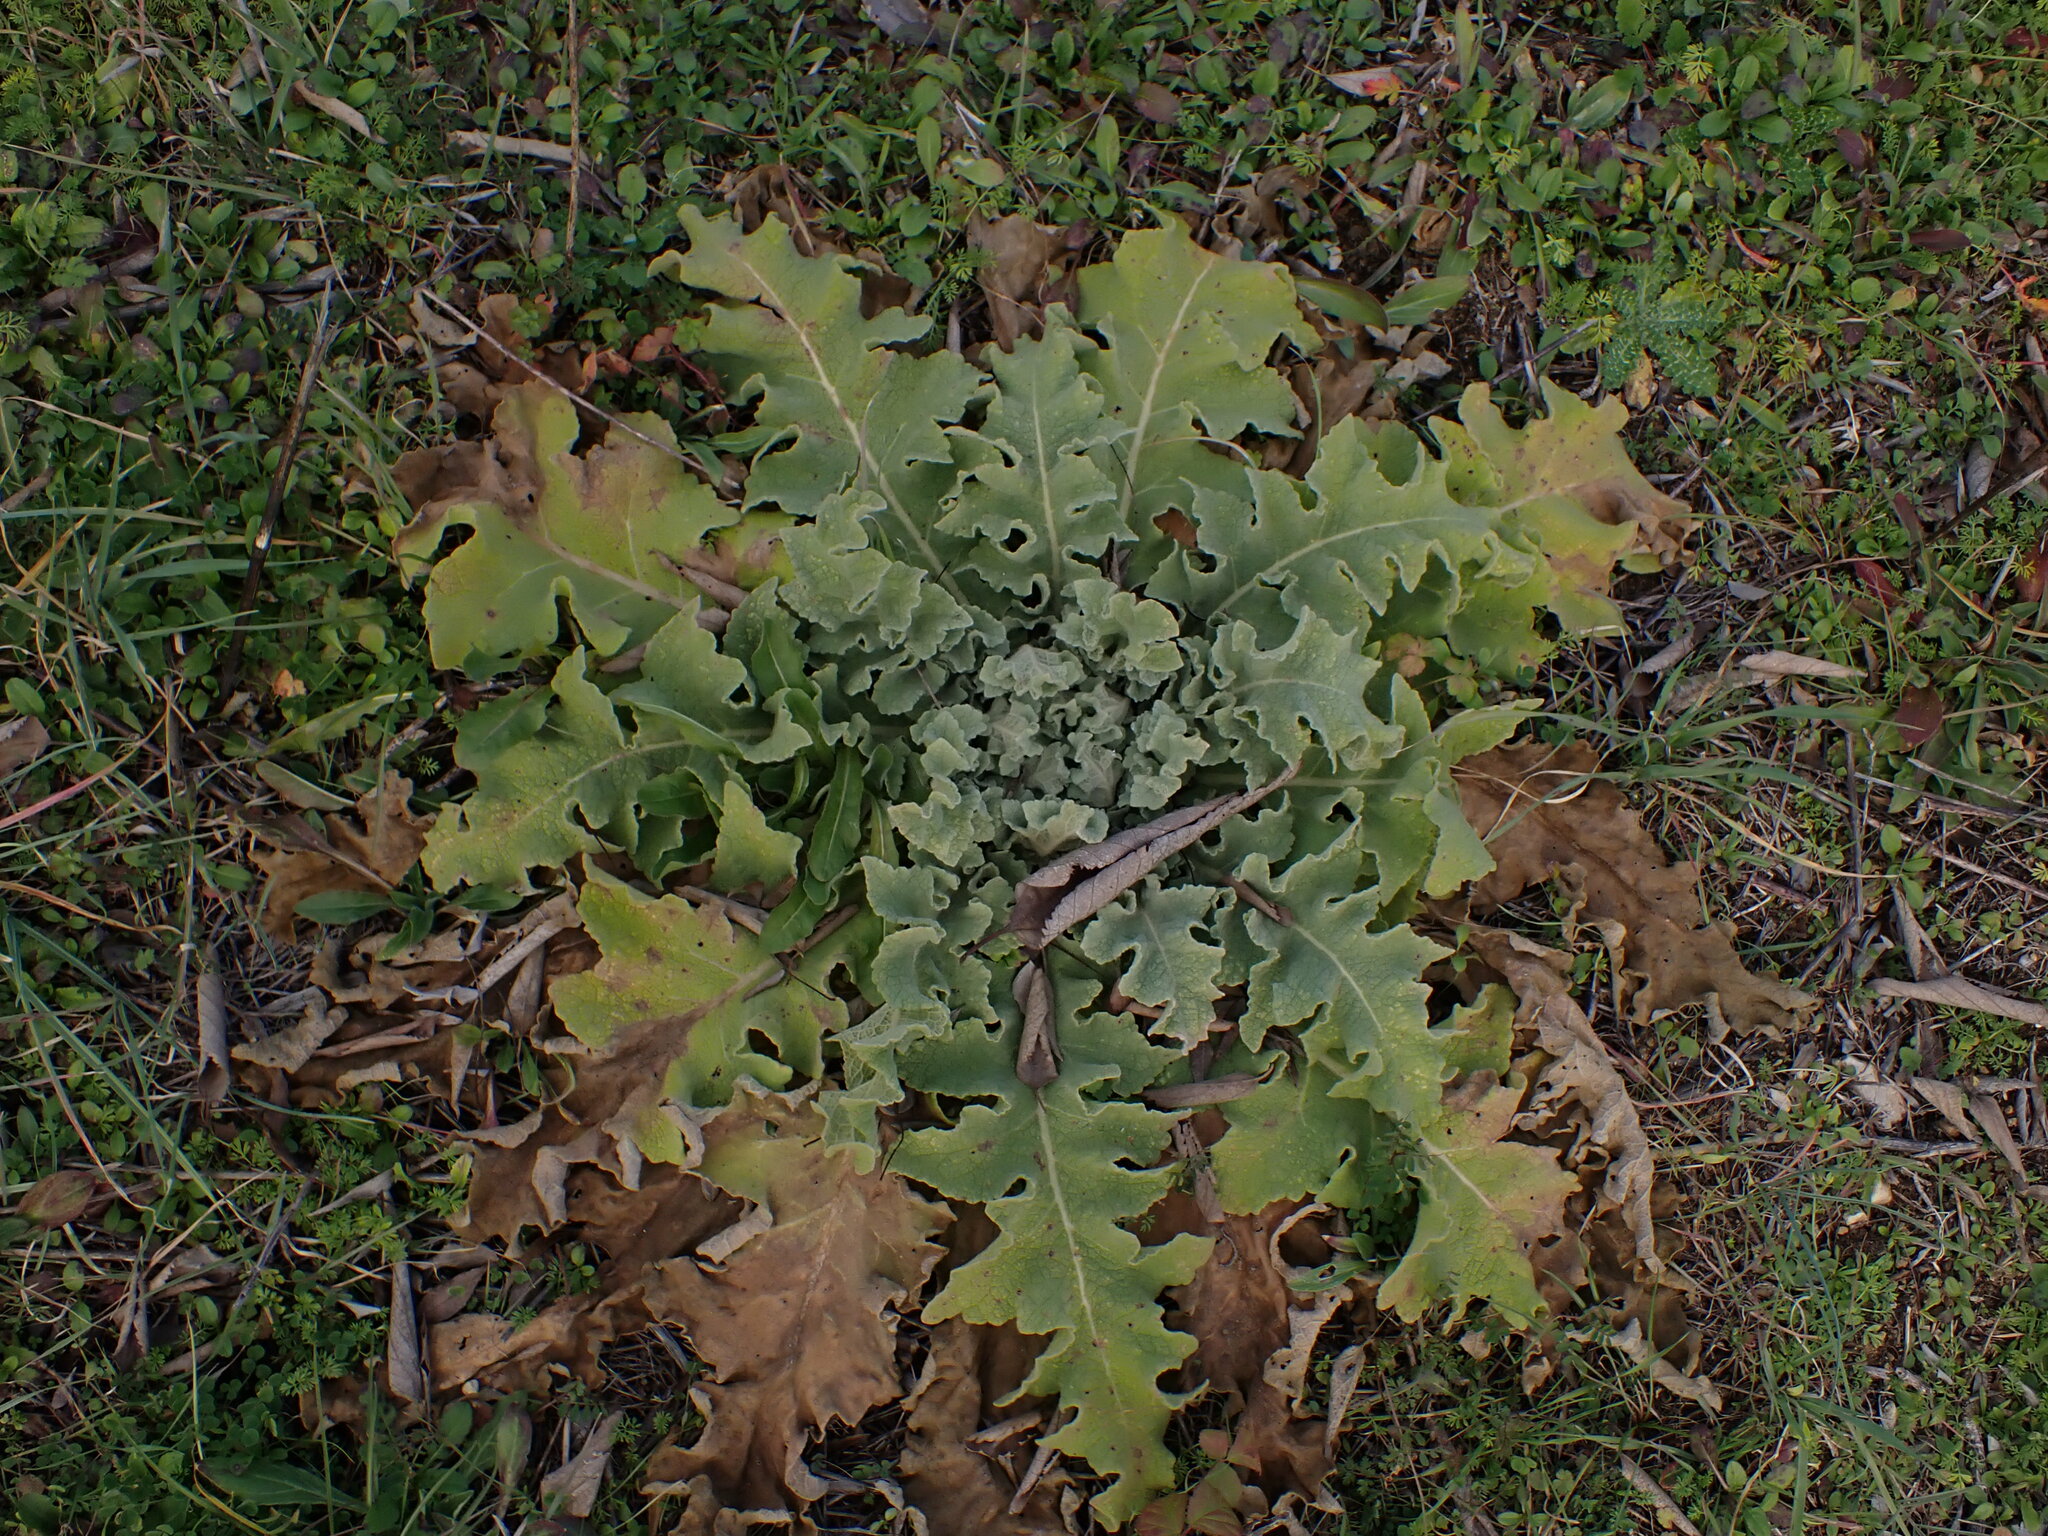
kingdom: Plantae
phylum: Tracheophyta
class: Magnoliopsida
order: Lamiales
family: Scrophulariaceae
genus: Verbascum
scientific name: Verbascum sinuatum
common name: Wavyleaf mullein
